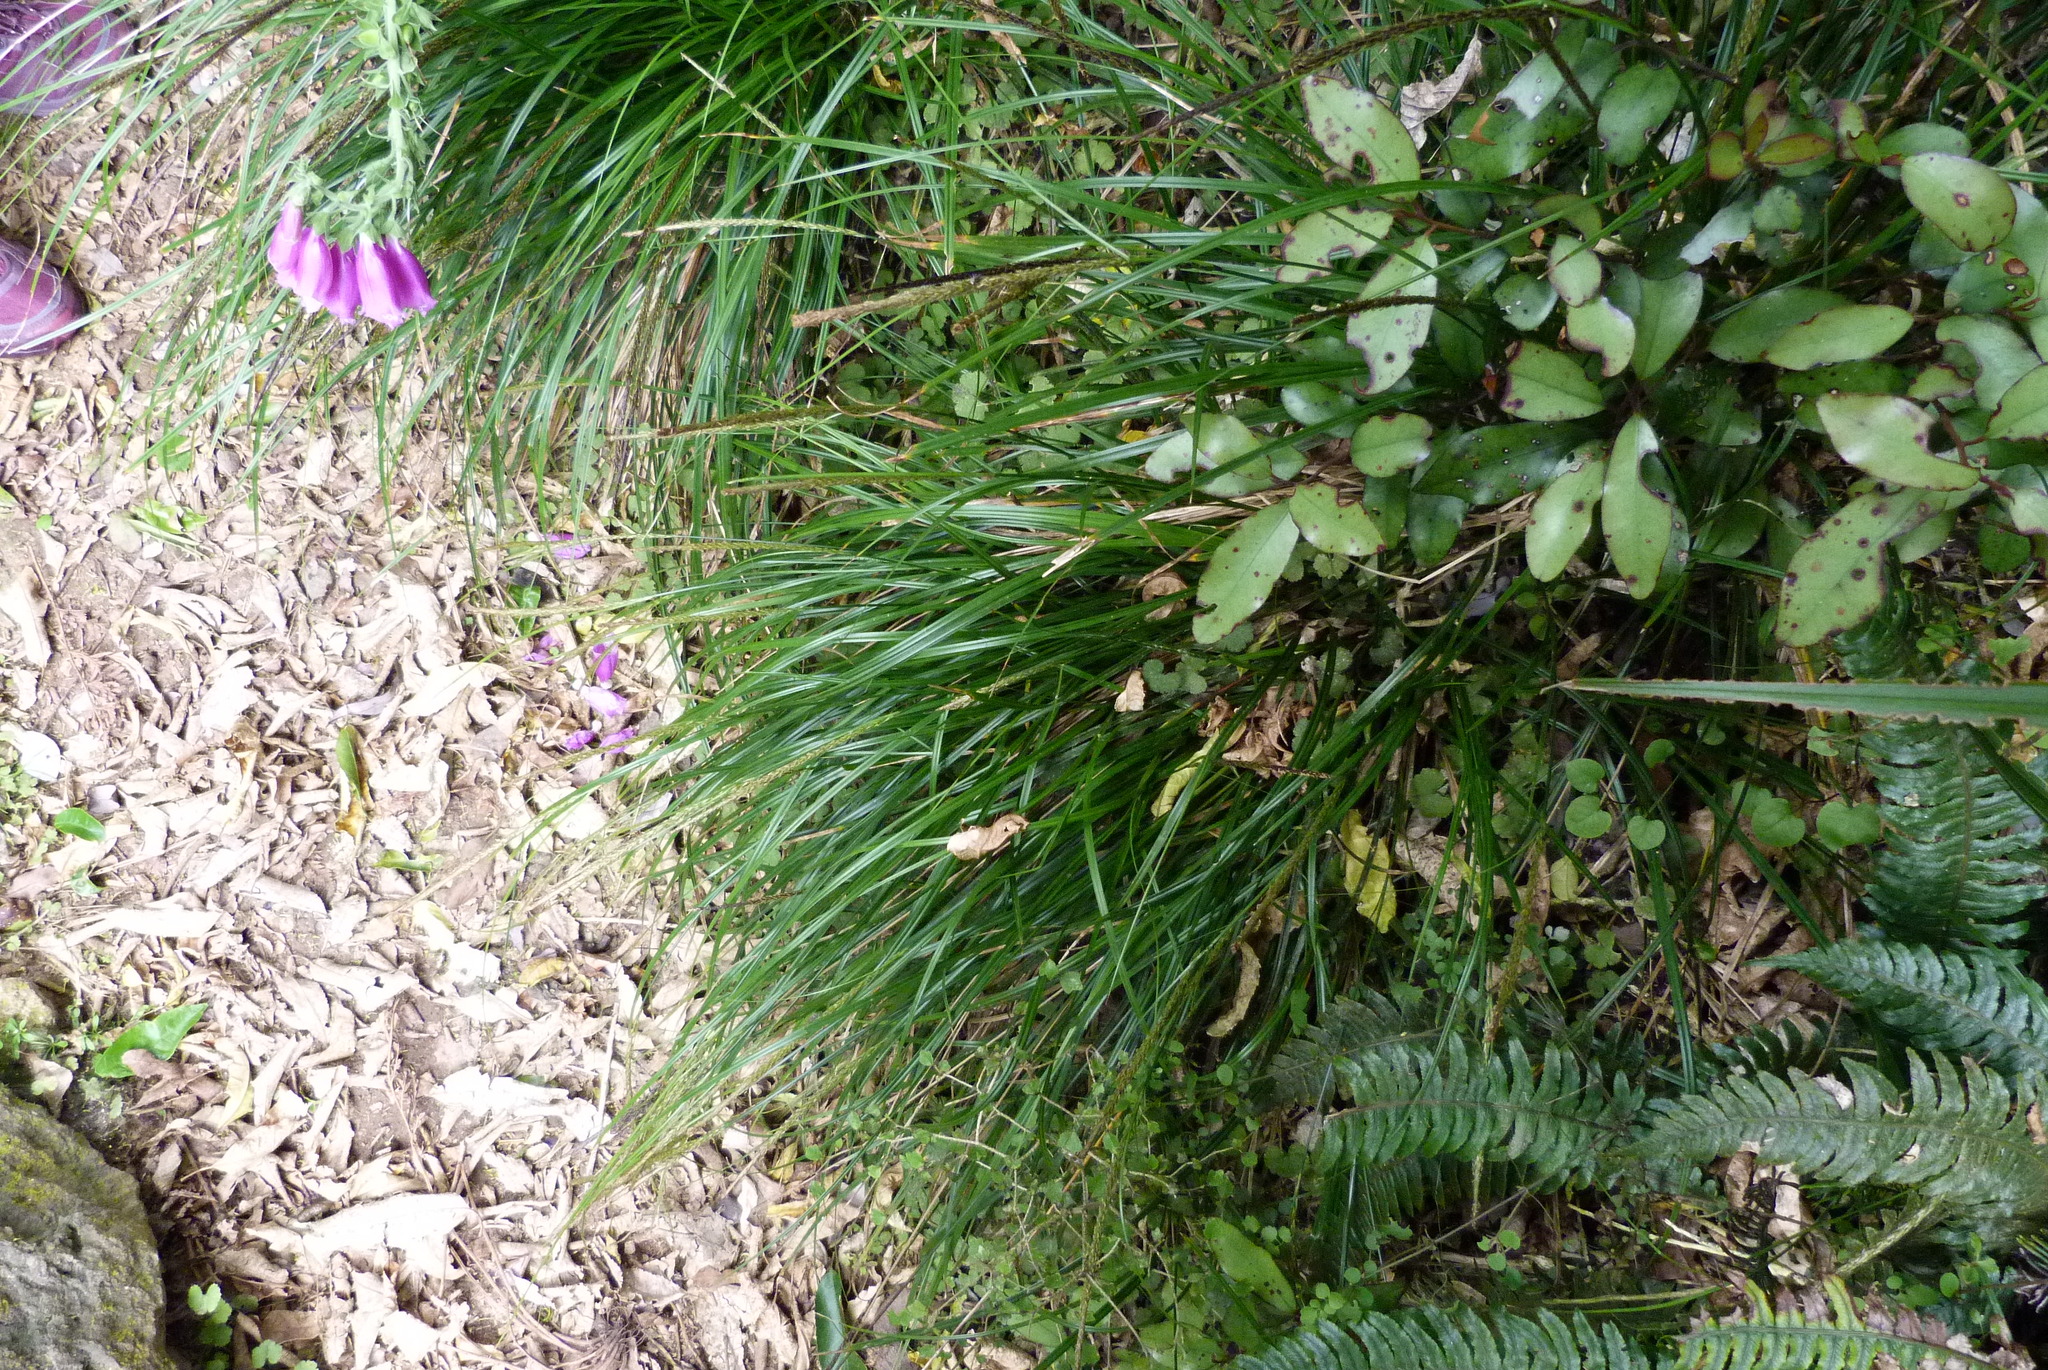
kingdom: Plantae
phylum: Tracheophyta
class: Liliopsida
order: Poales
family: Cyperaceae
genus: Carex
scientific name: Carex uncinata
